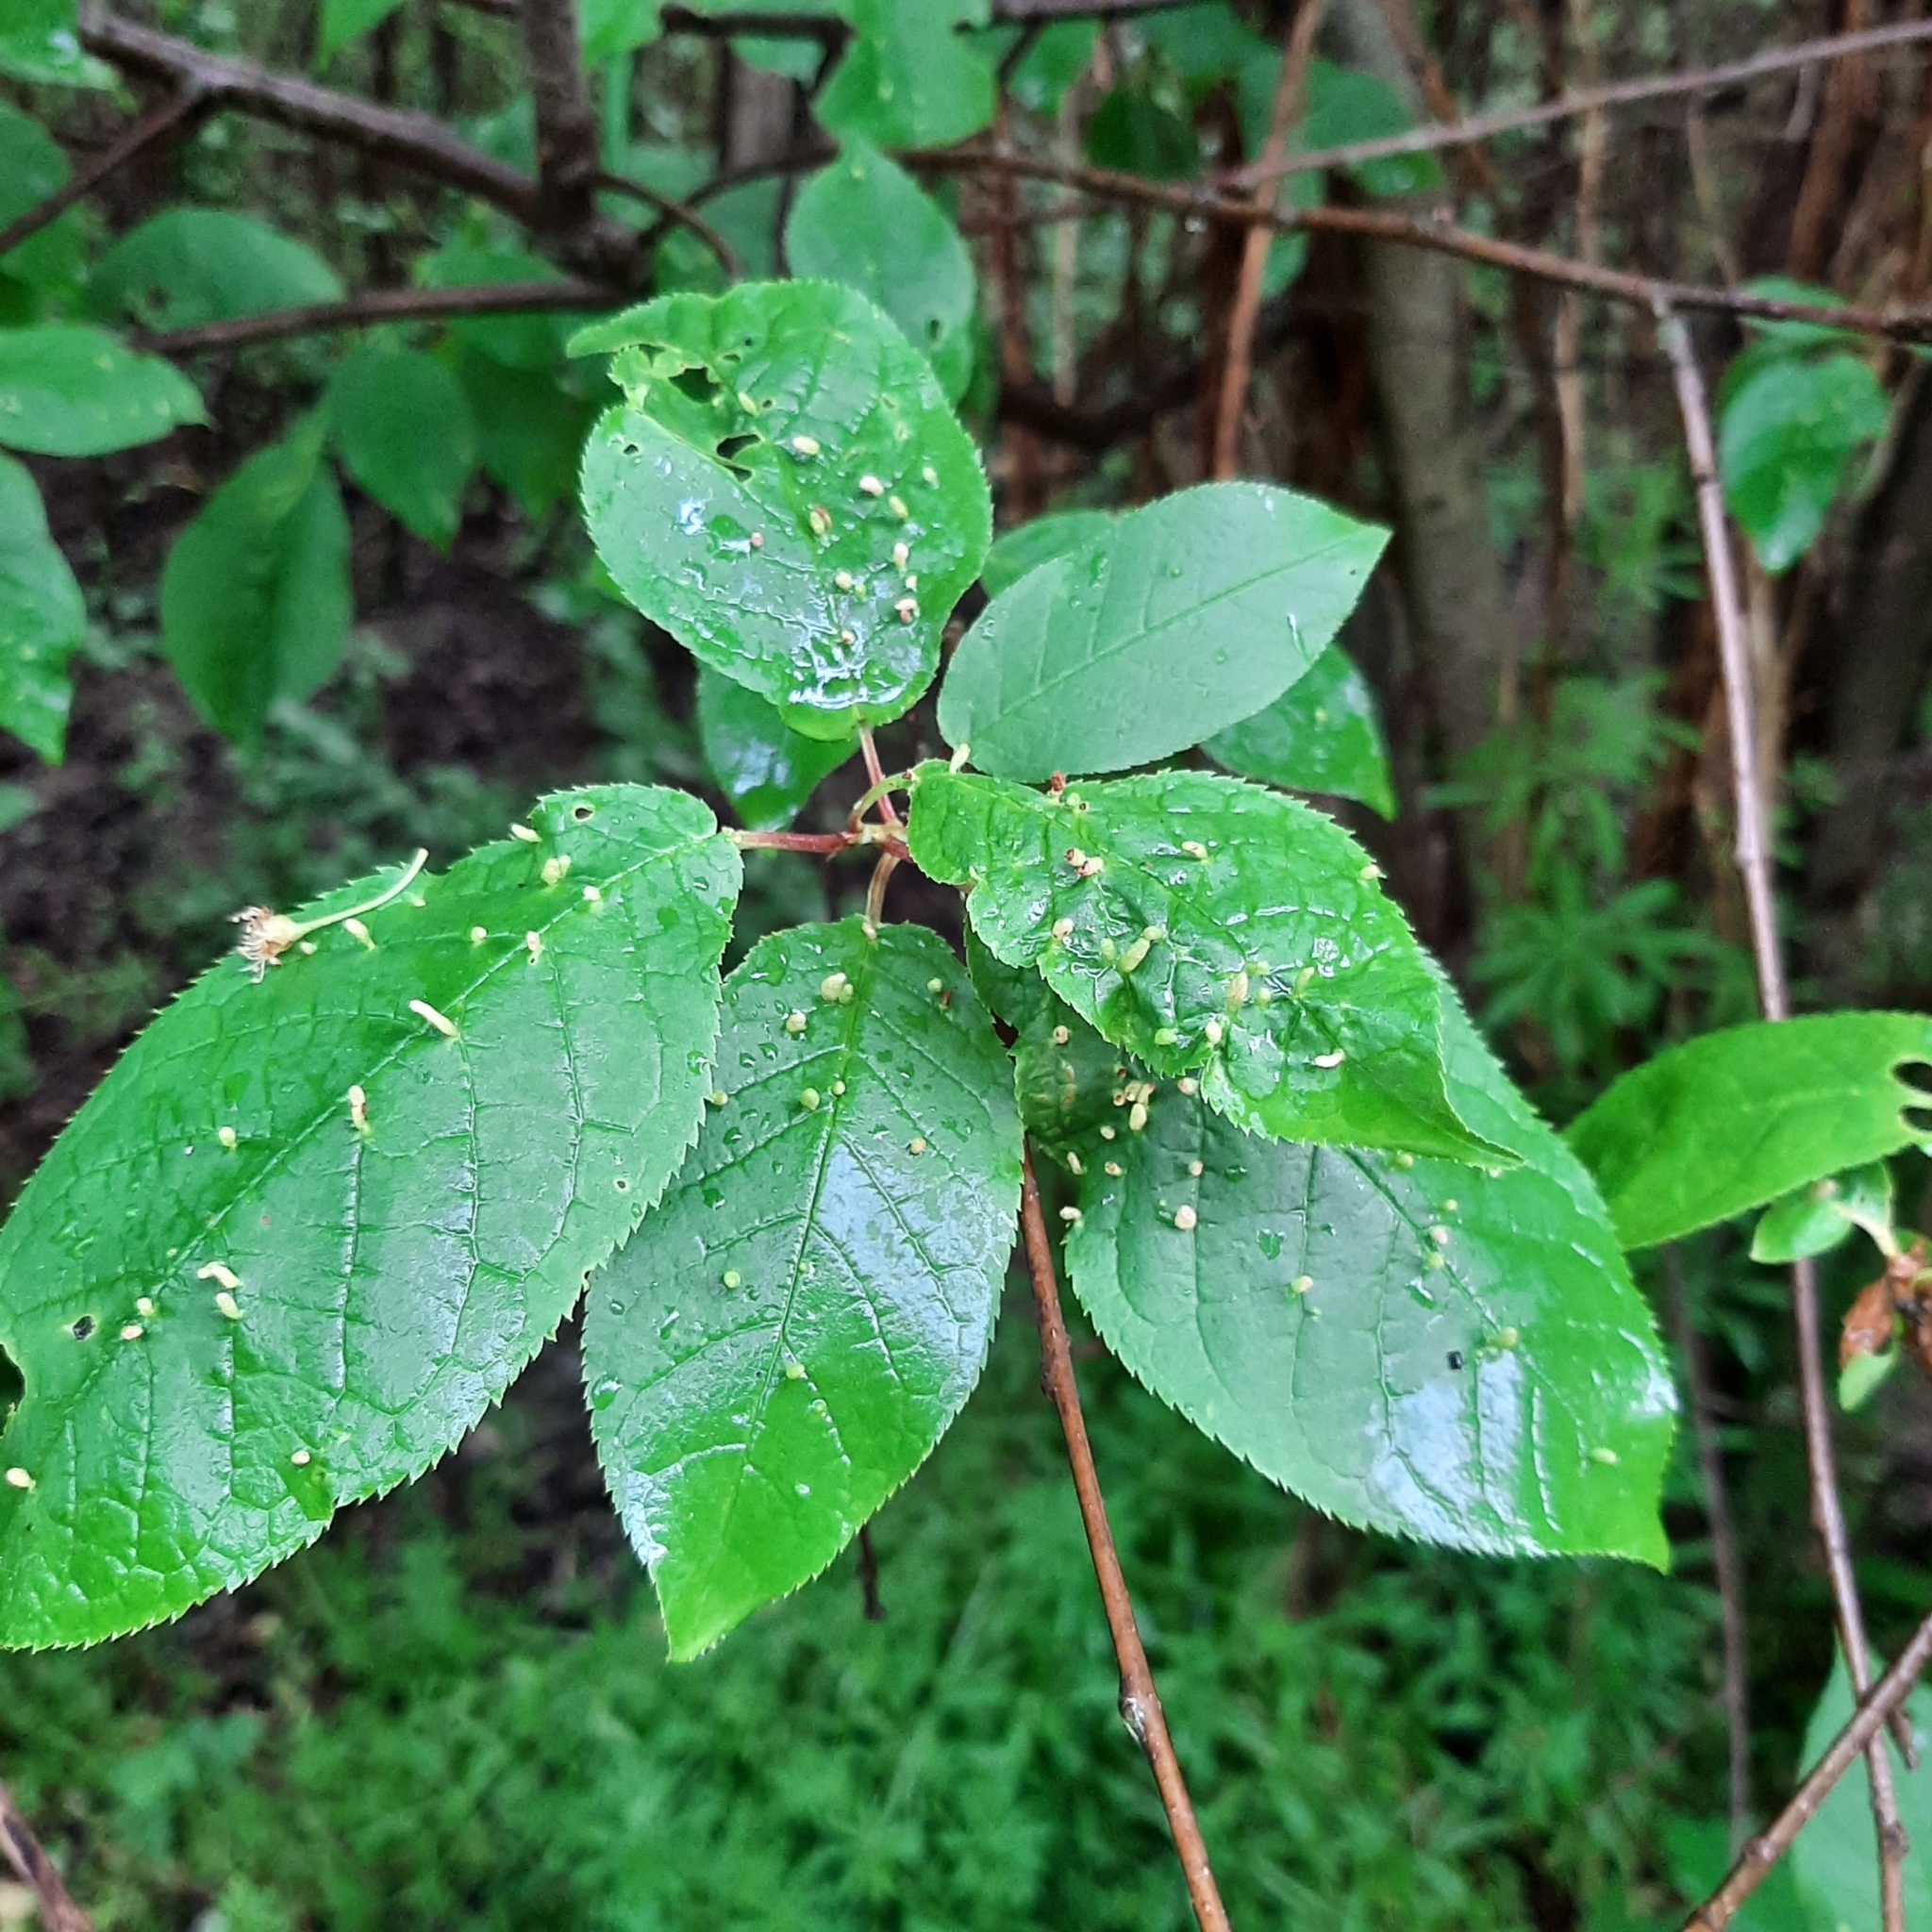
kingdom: Animalia
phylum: Arthropoda
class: Arachnida
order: Trombidiformes
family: Eriophyidae
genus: Phyllocoptes
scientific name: Phyllocoptes eupadi
